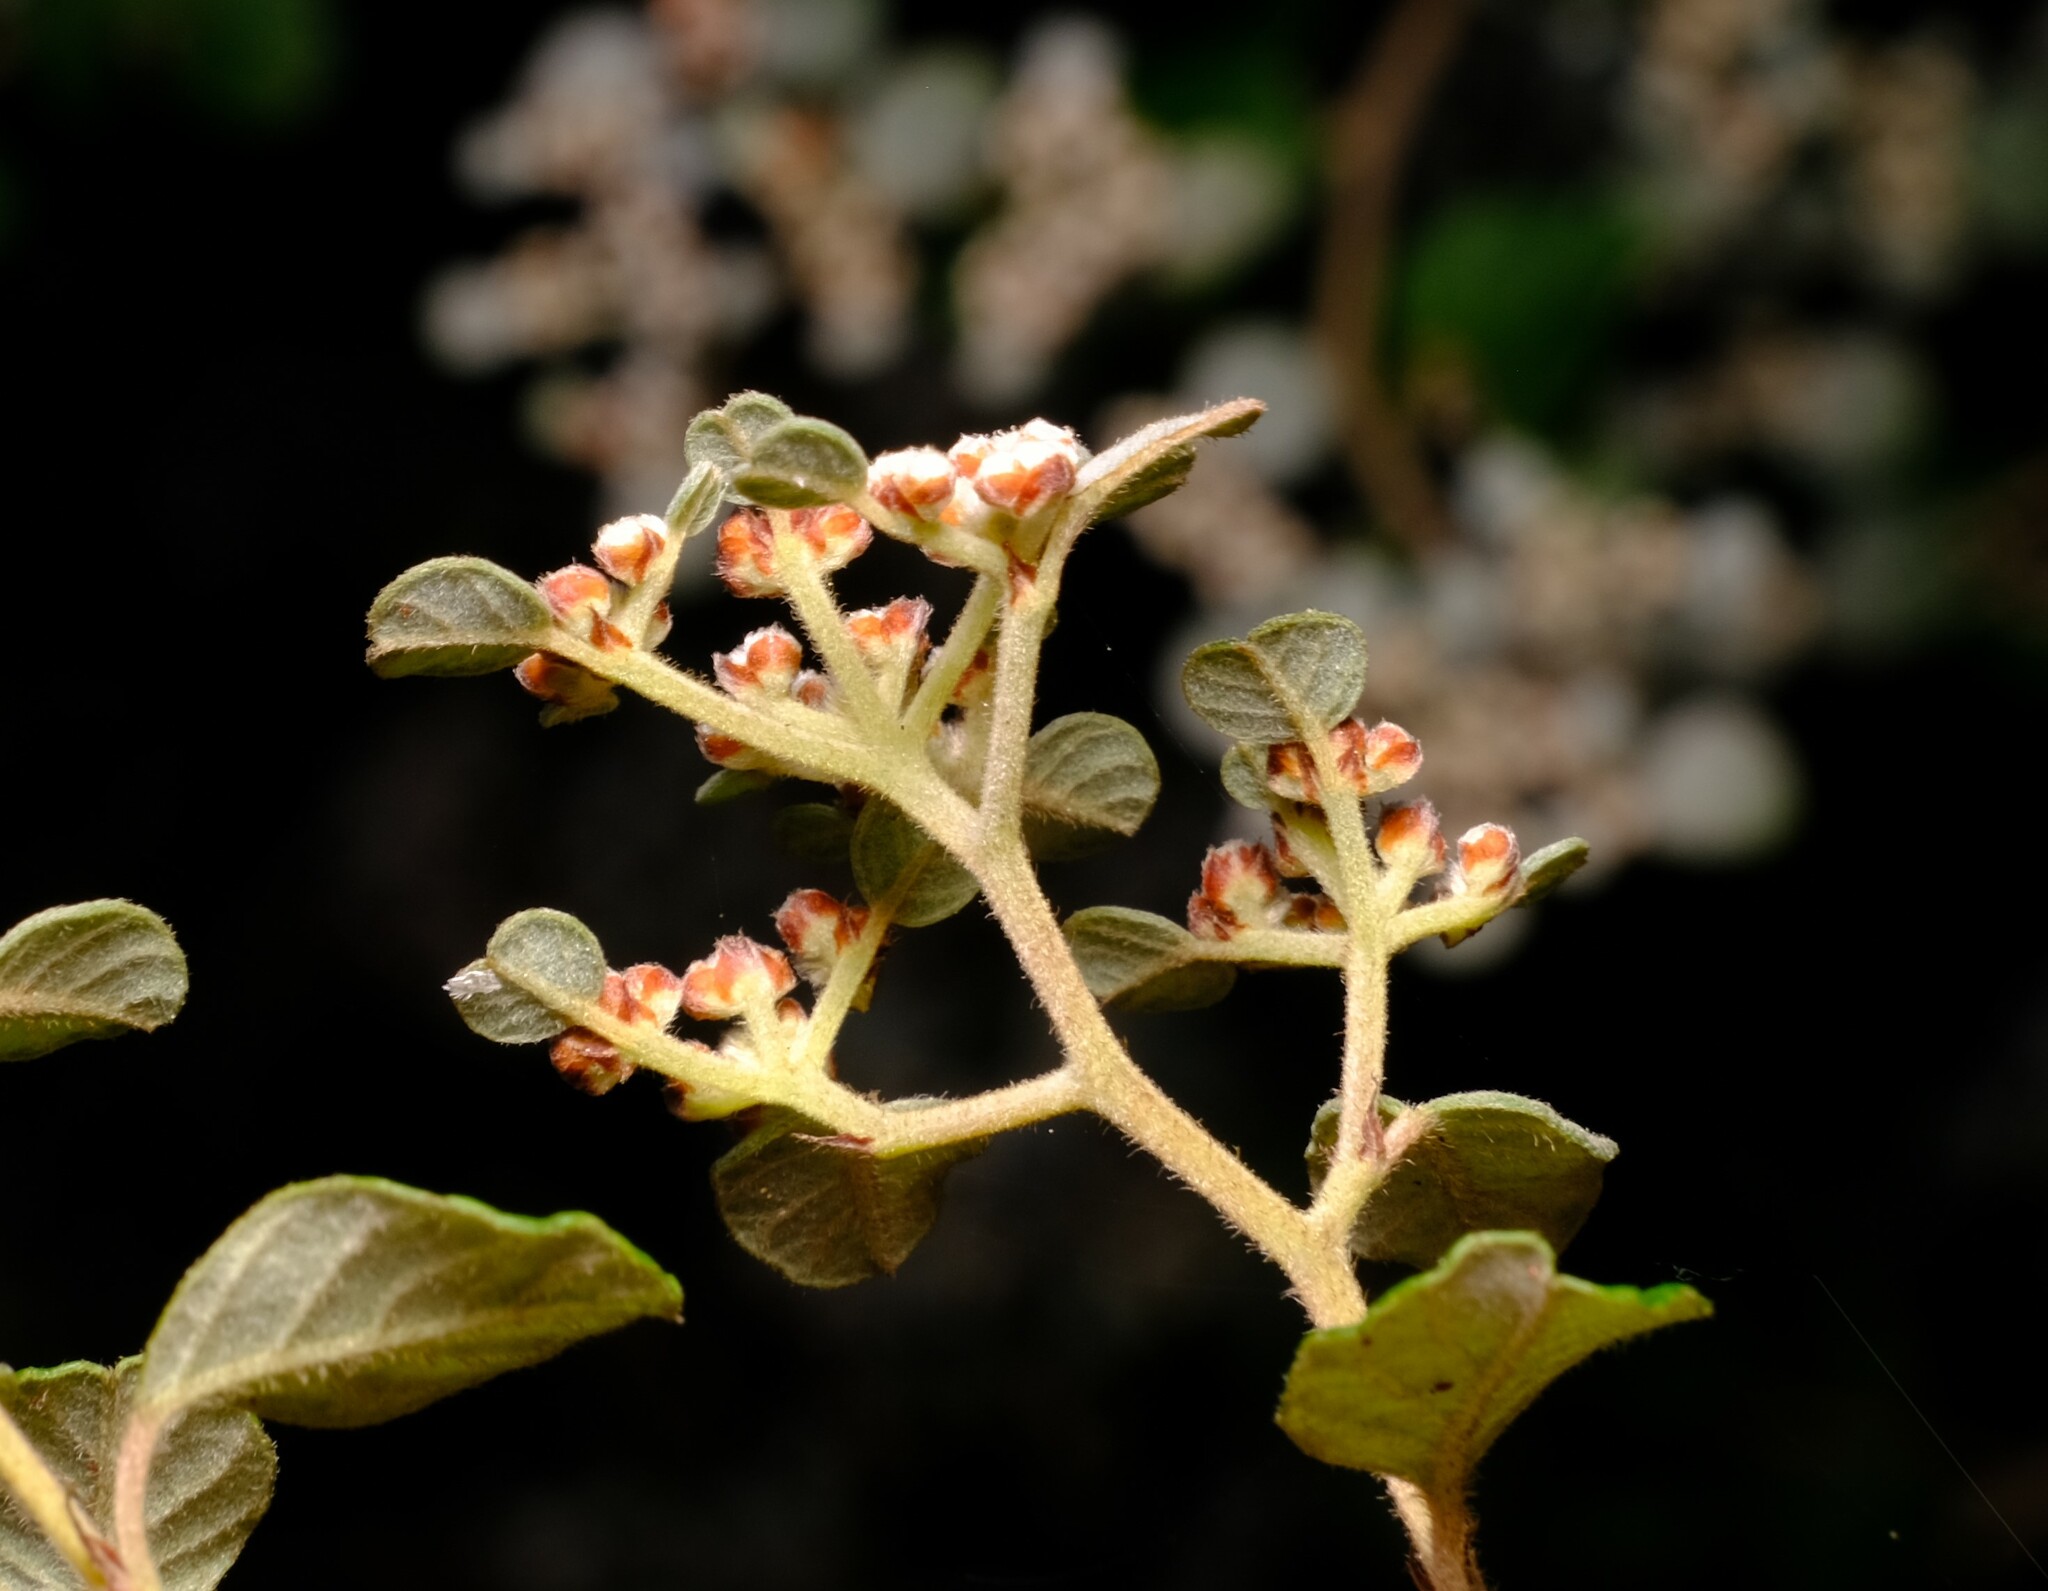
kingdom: Plantae
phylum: Tracheophyta
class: Magnoliopsida
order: Rosales
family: Rhamnaceae
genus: Spyridium
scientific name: Spyridium parvifolium
